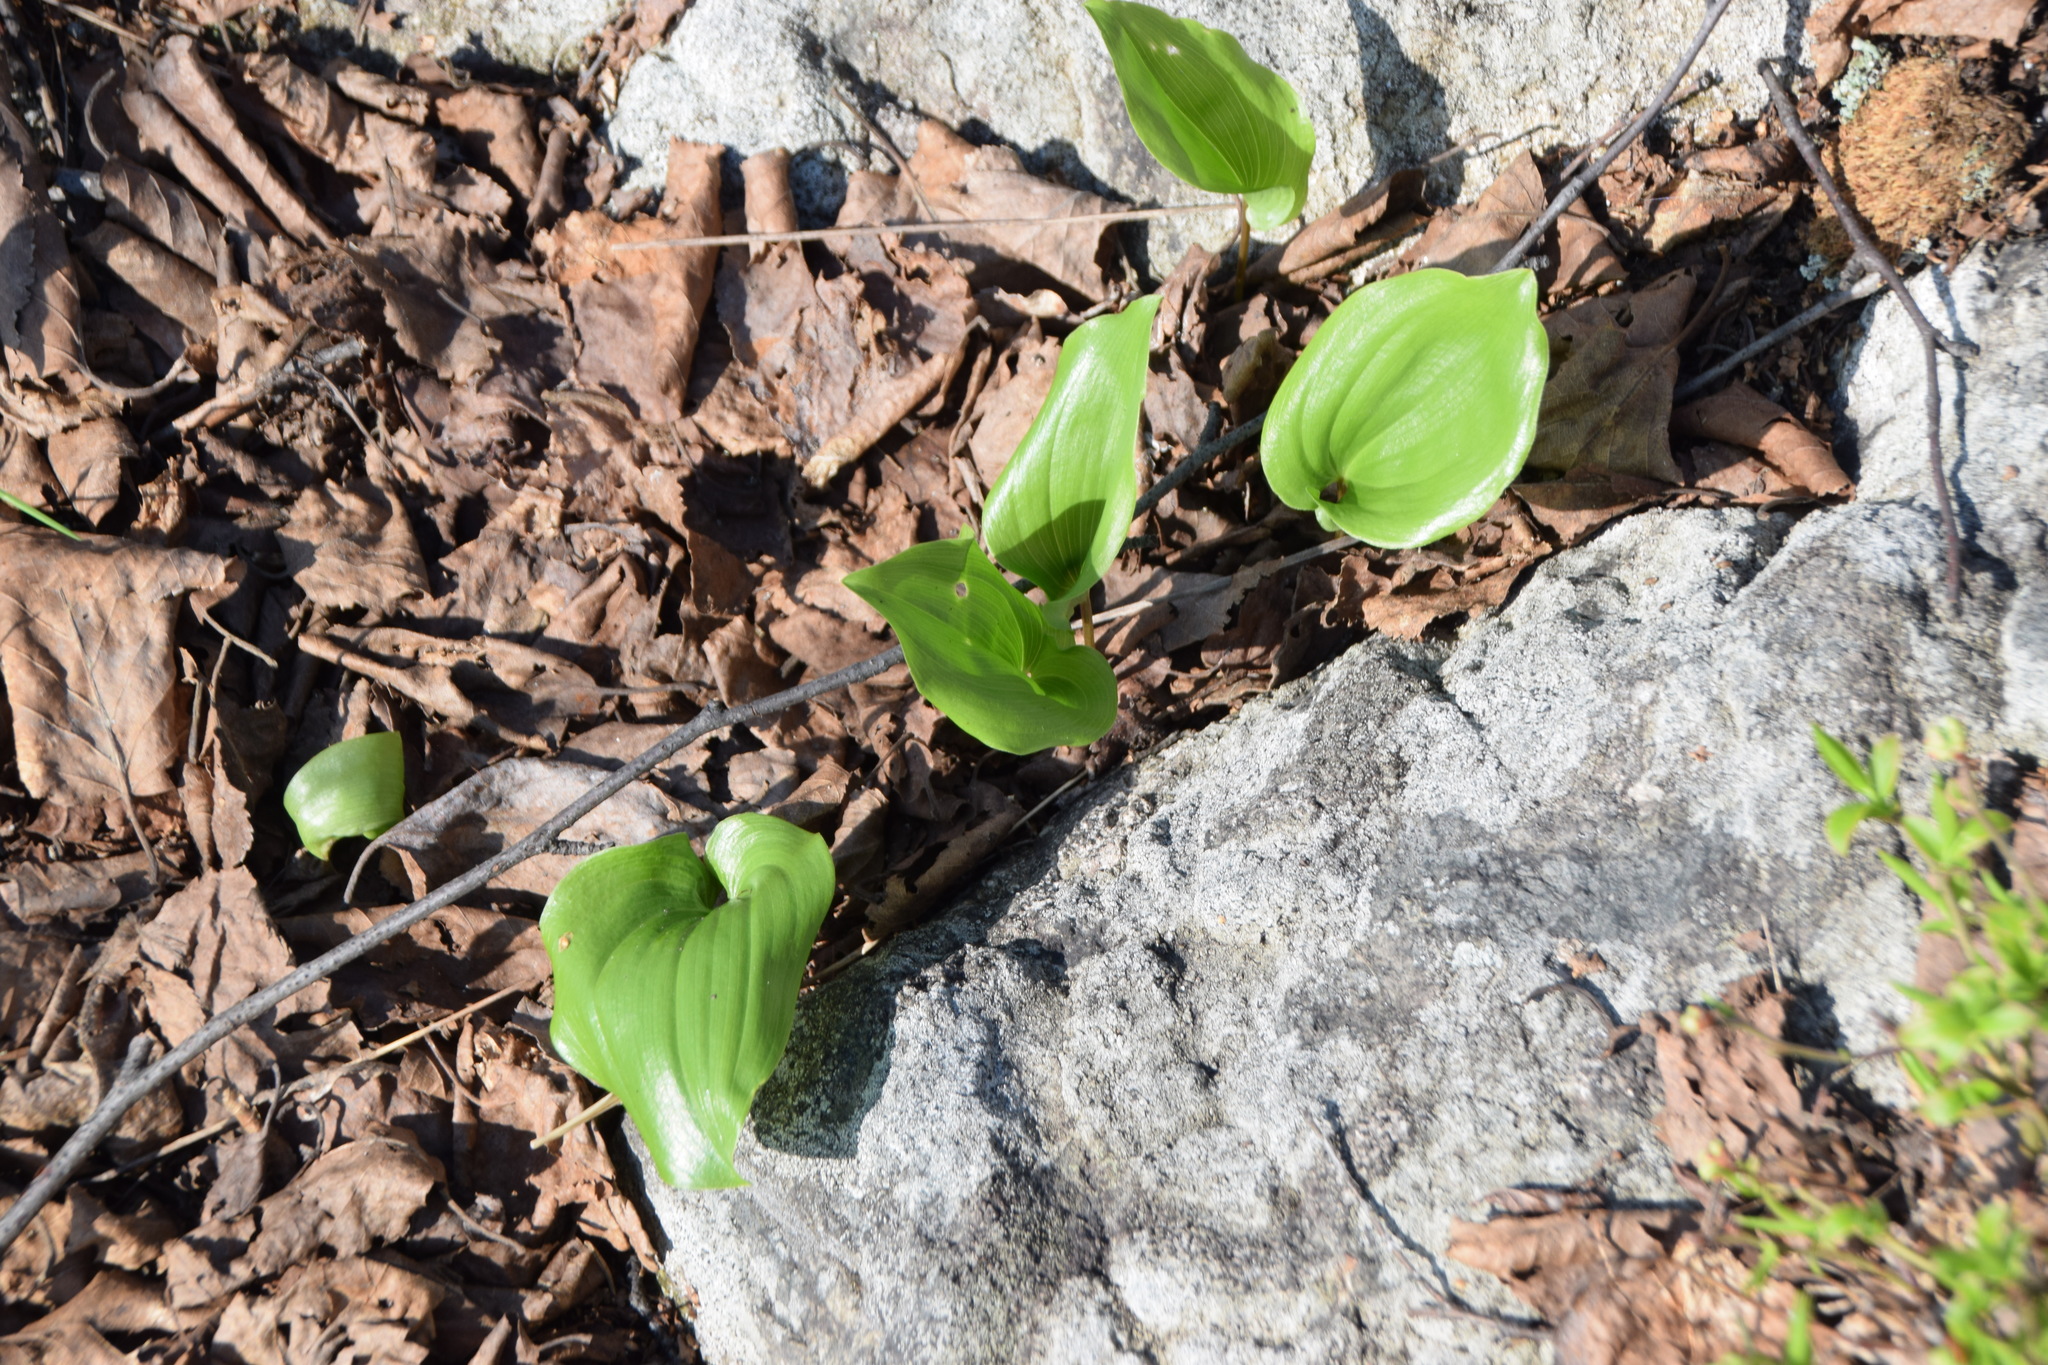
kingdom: Plantae
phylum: Tracheophyta
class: Liliopsida
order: Asparagales
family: Asparagaceae
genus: Maianthemum
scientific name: Maianthemum canadense
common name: False lily-of-the-valley
